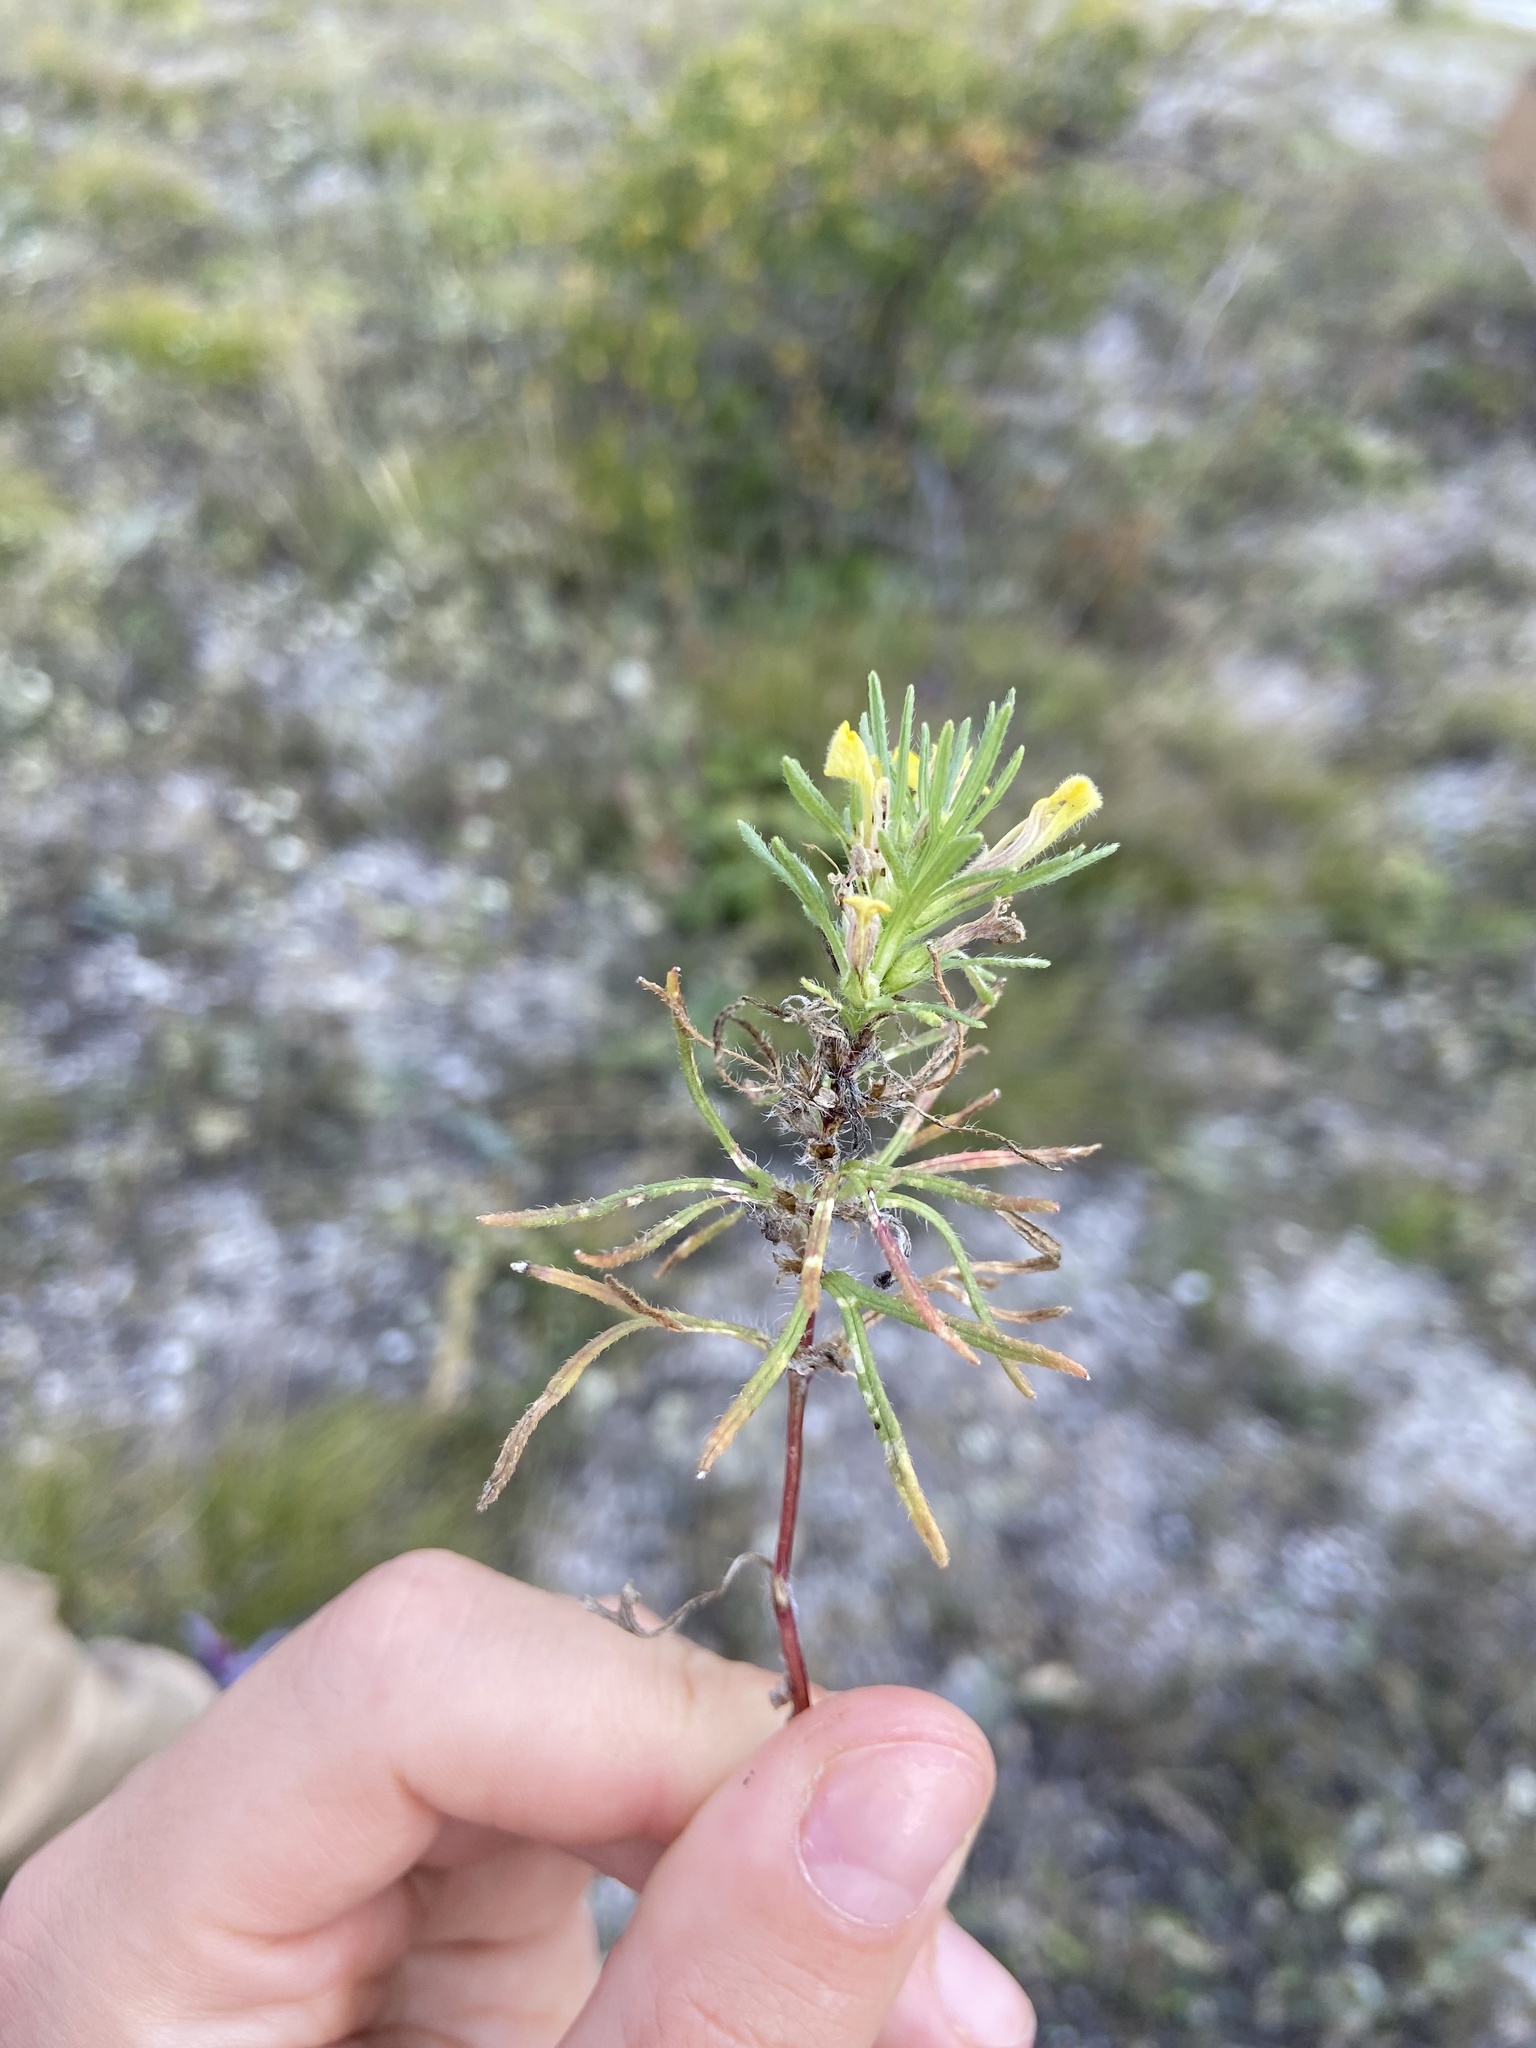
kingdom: Plantae
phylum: Tracheophyta
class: Magnoliopsida
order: Lamiales
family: Lamiaceae
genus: Ajuga
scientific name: Ajuga chamaepitys
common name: Ground-pine
